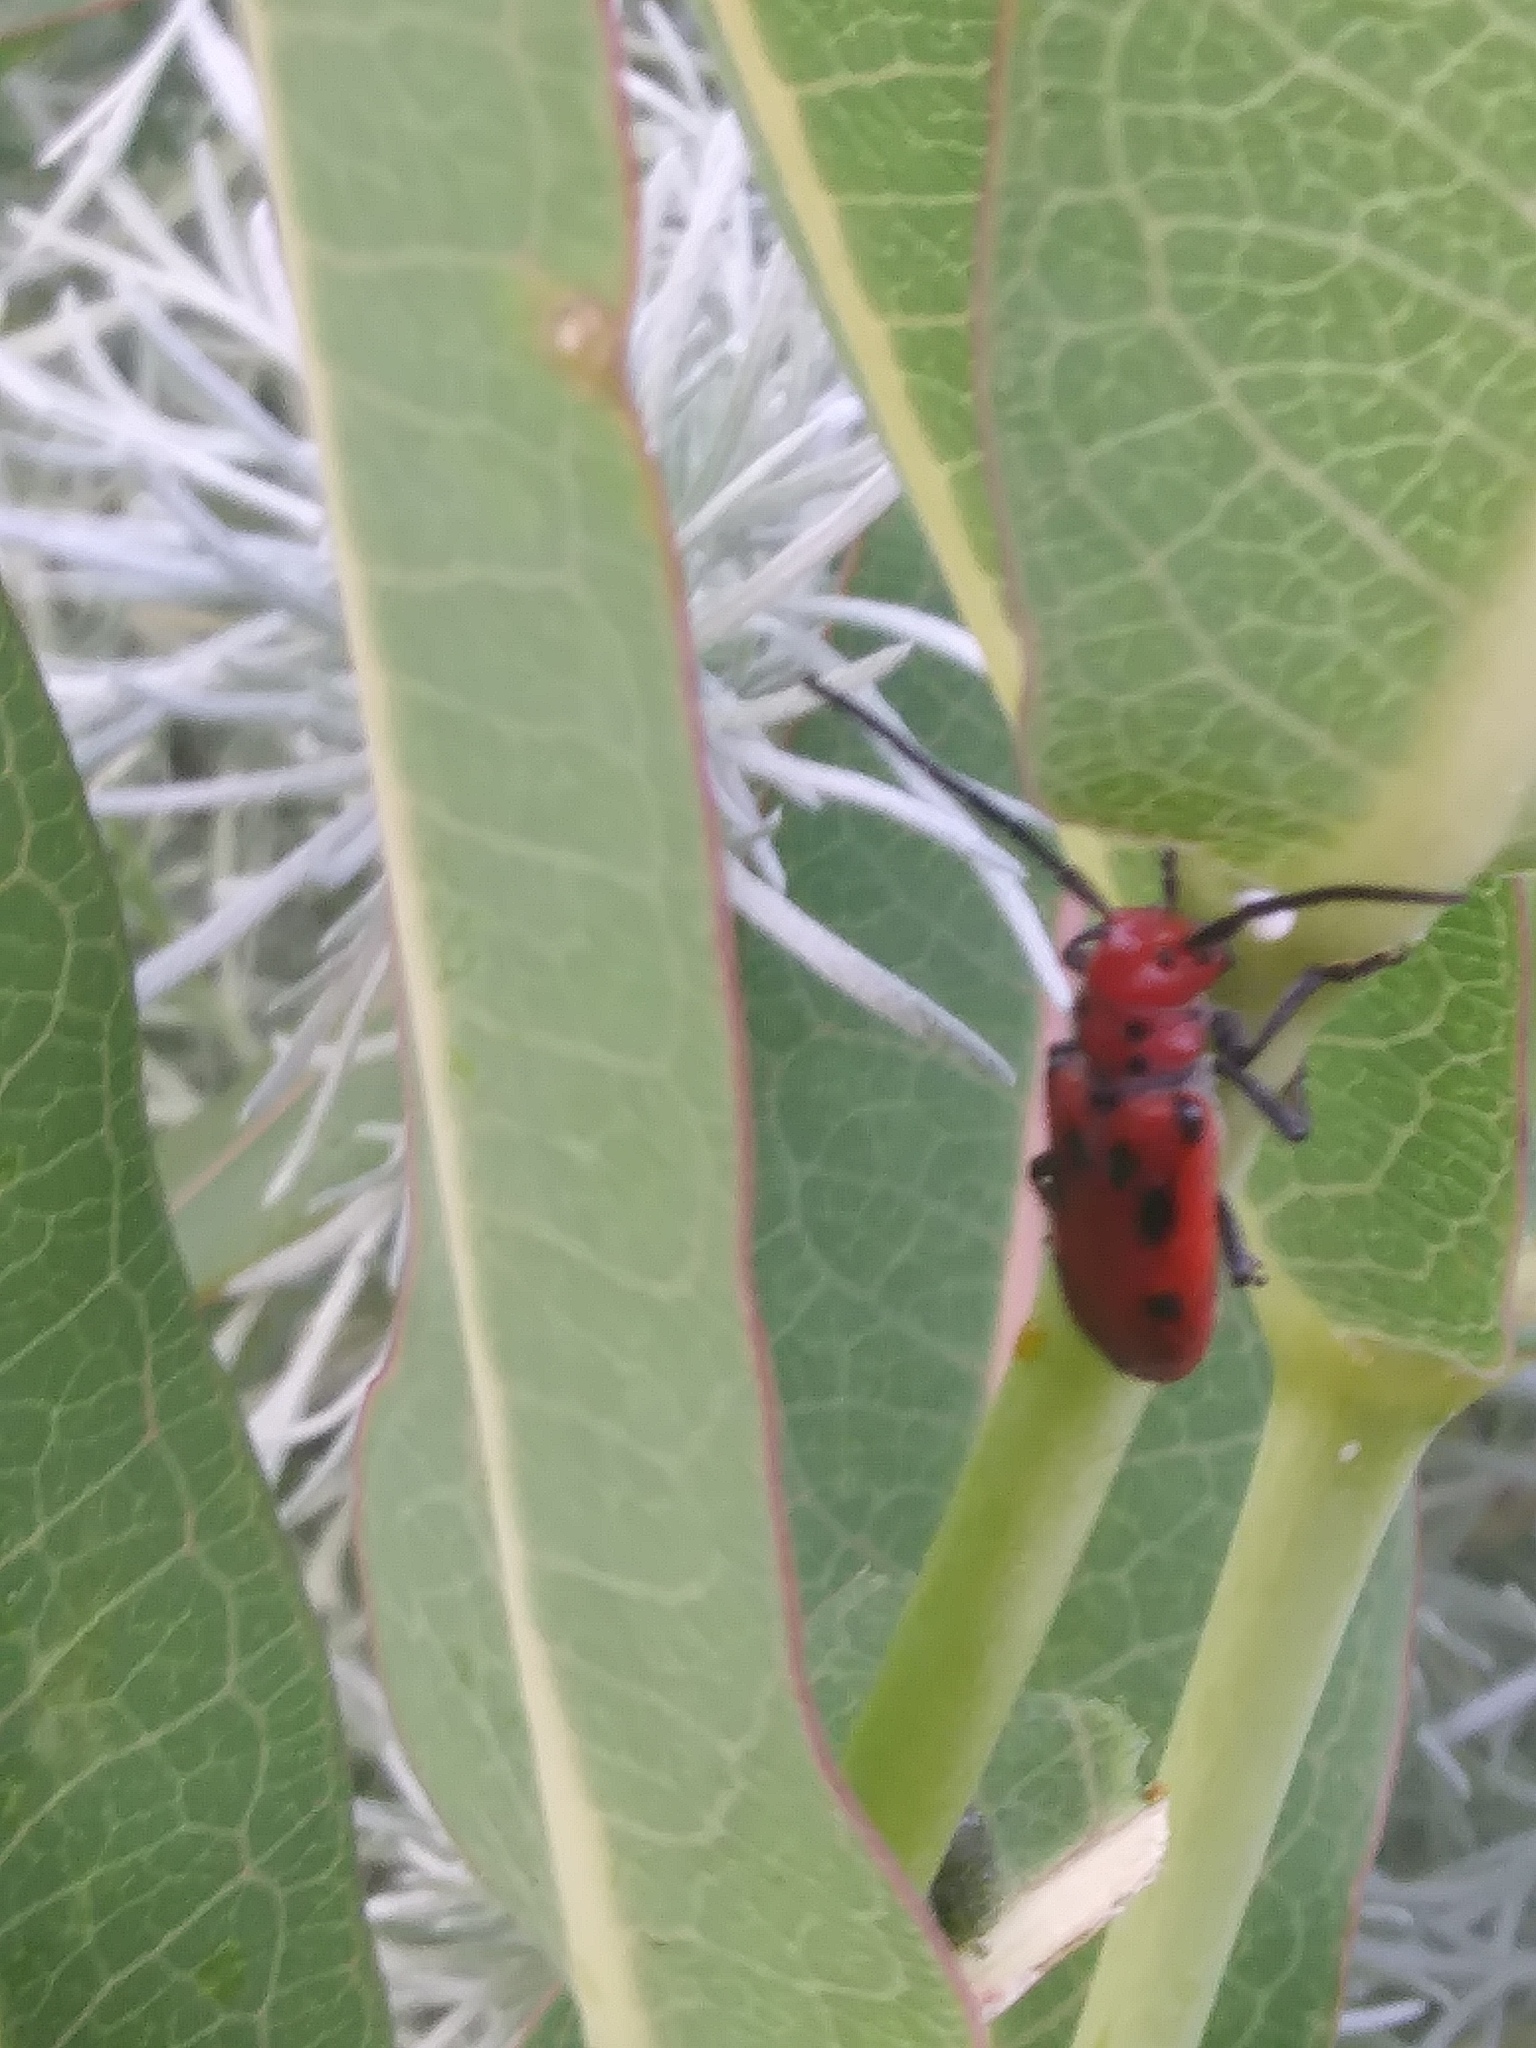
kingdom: Animalia
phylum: Arthropoda
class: Insecta
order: Coleoptera
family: Cerambycidae
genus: Tetraopes
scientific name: Tetraopes tetrophthalmus
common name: Red milkweed beetle
